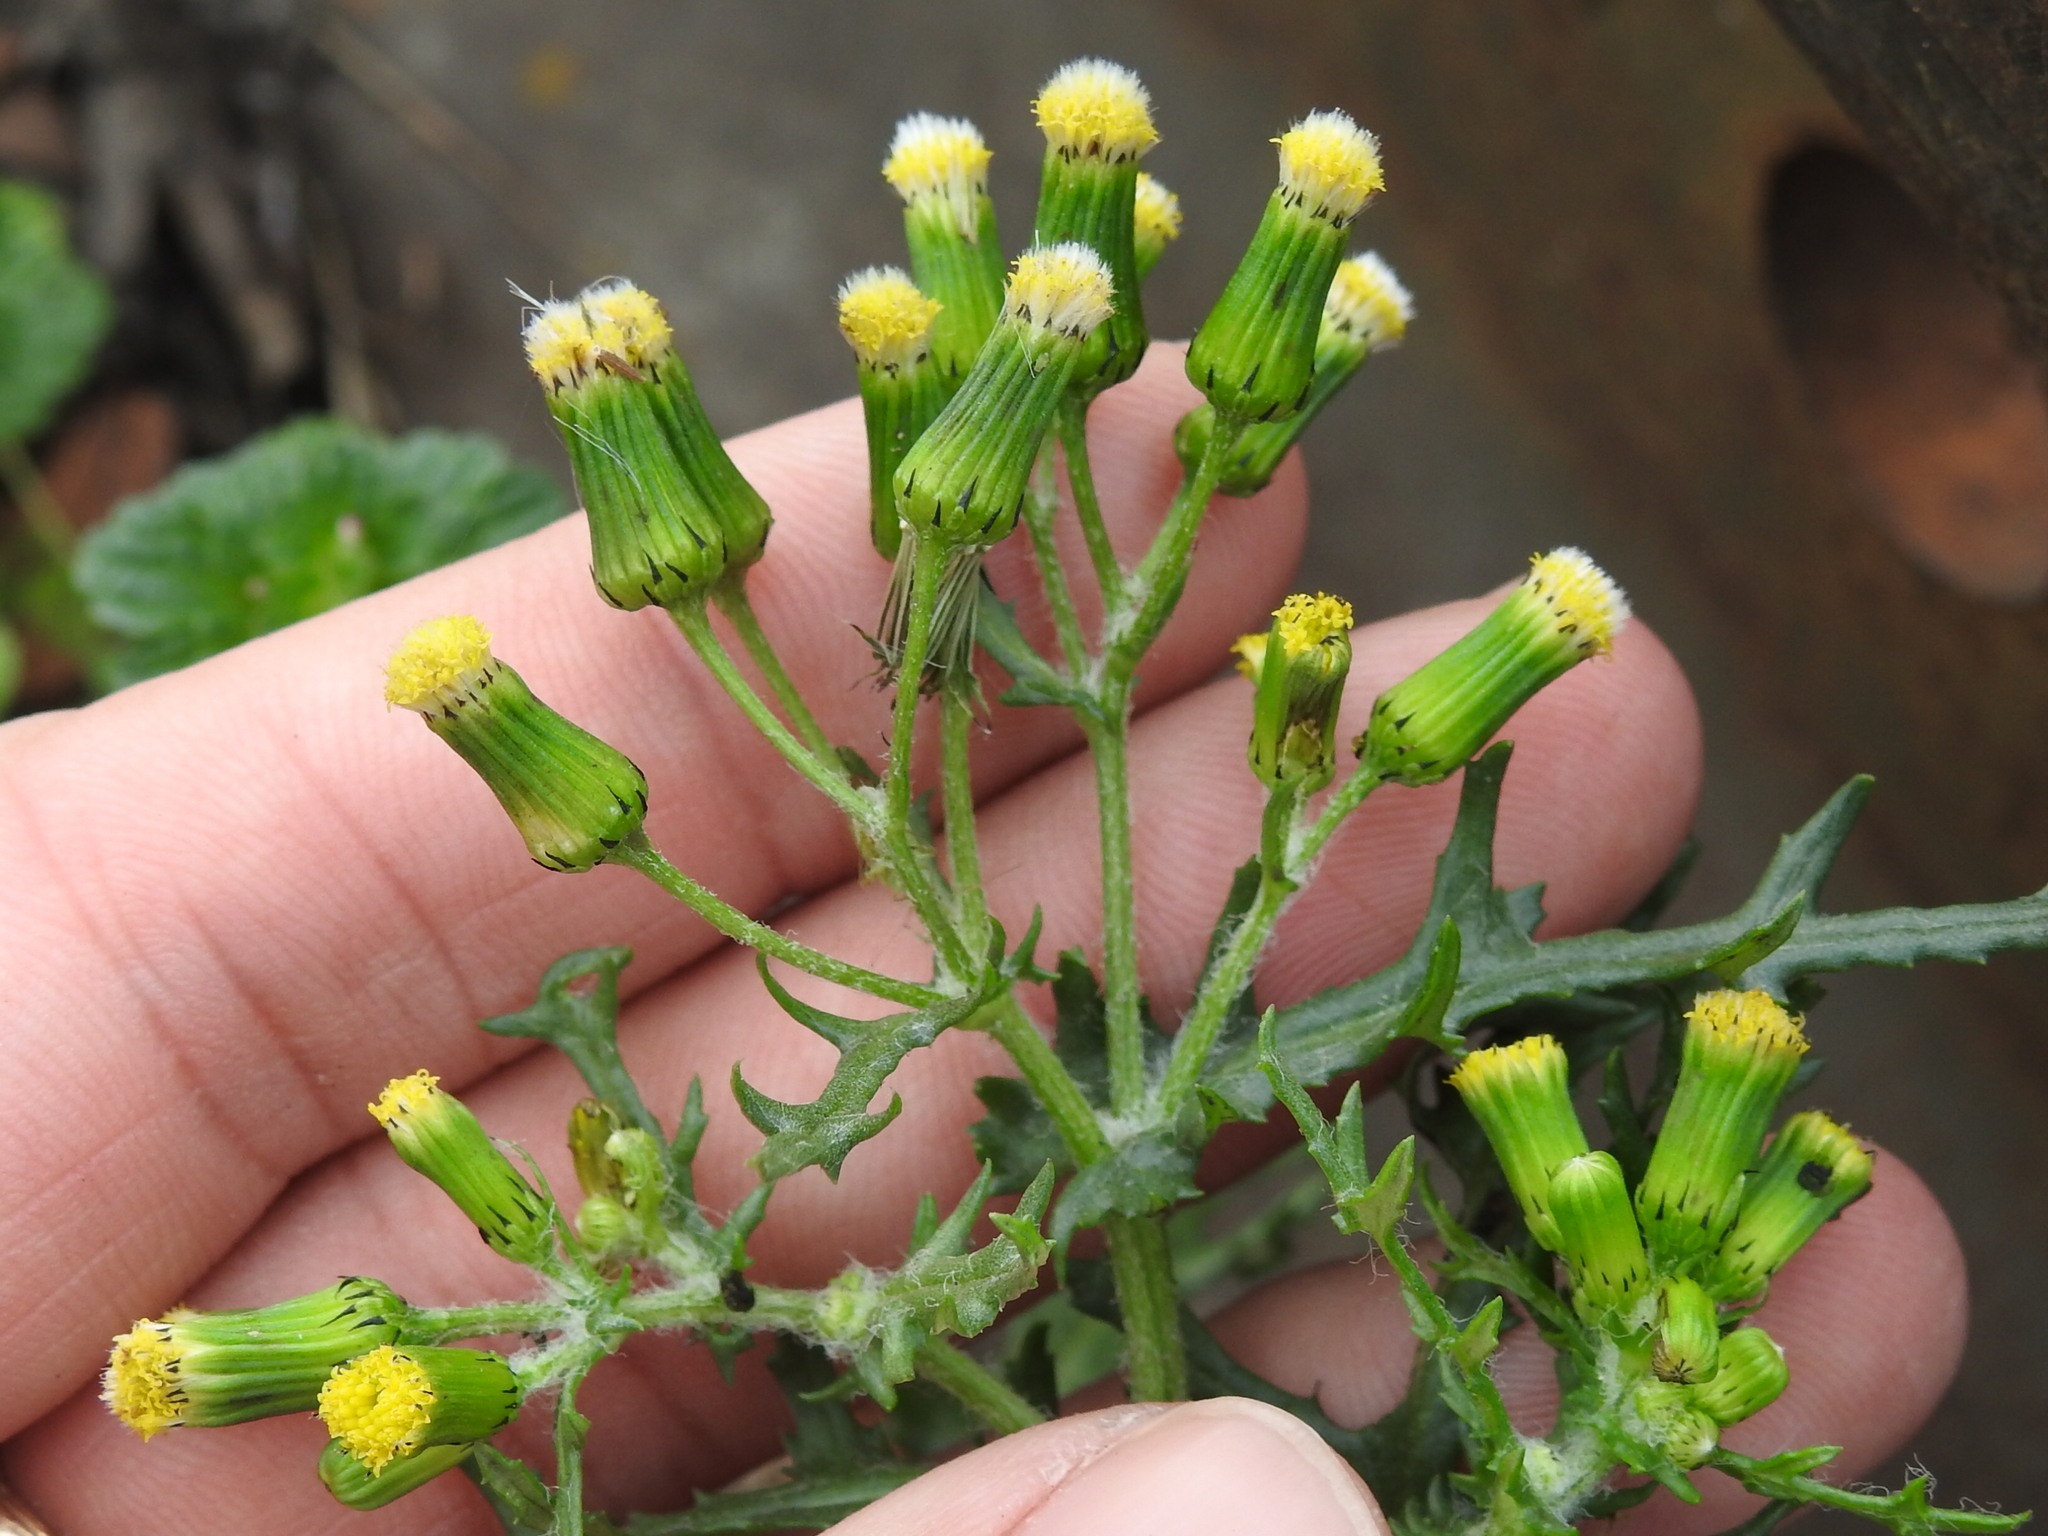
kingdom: Plantae
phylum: Tracheophyta
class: Magnoliopsida
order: Asterales
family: Asteraceae
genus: Senecio
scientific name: Senecio vulgaris
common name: Old-man-in-the-spring
